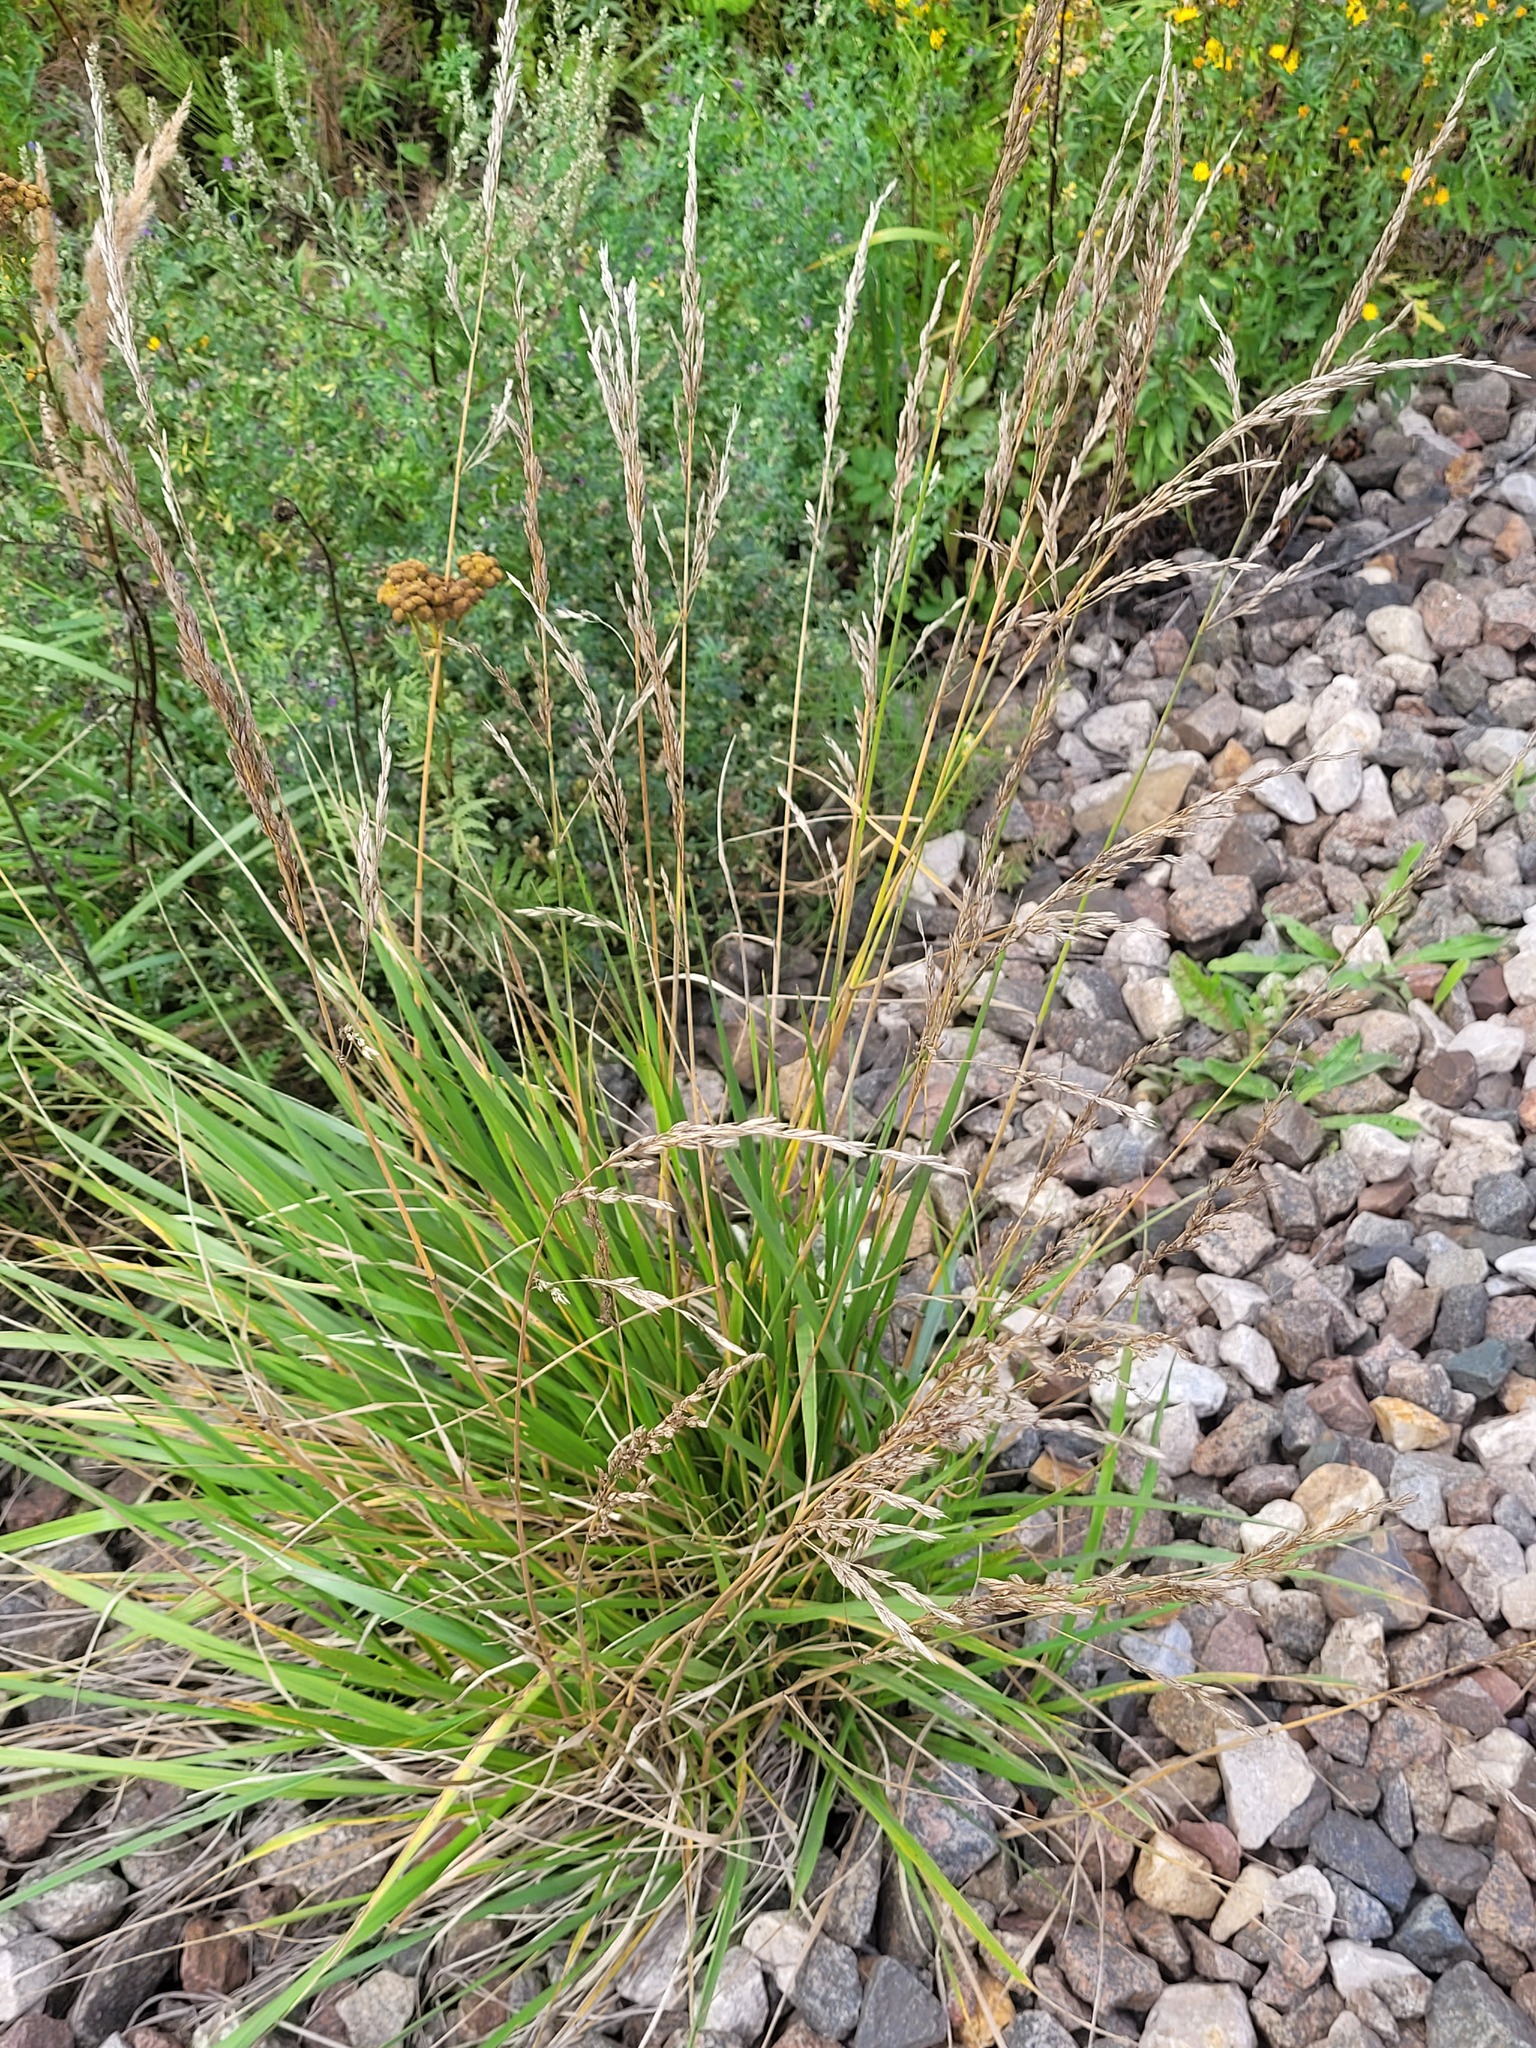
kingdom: Plantae
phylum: Tracheophyta
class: Liliopsida
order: Poales
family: Poaceae
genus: Lolium
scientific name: Lolium arundinaceum
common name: Reed fescue
